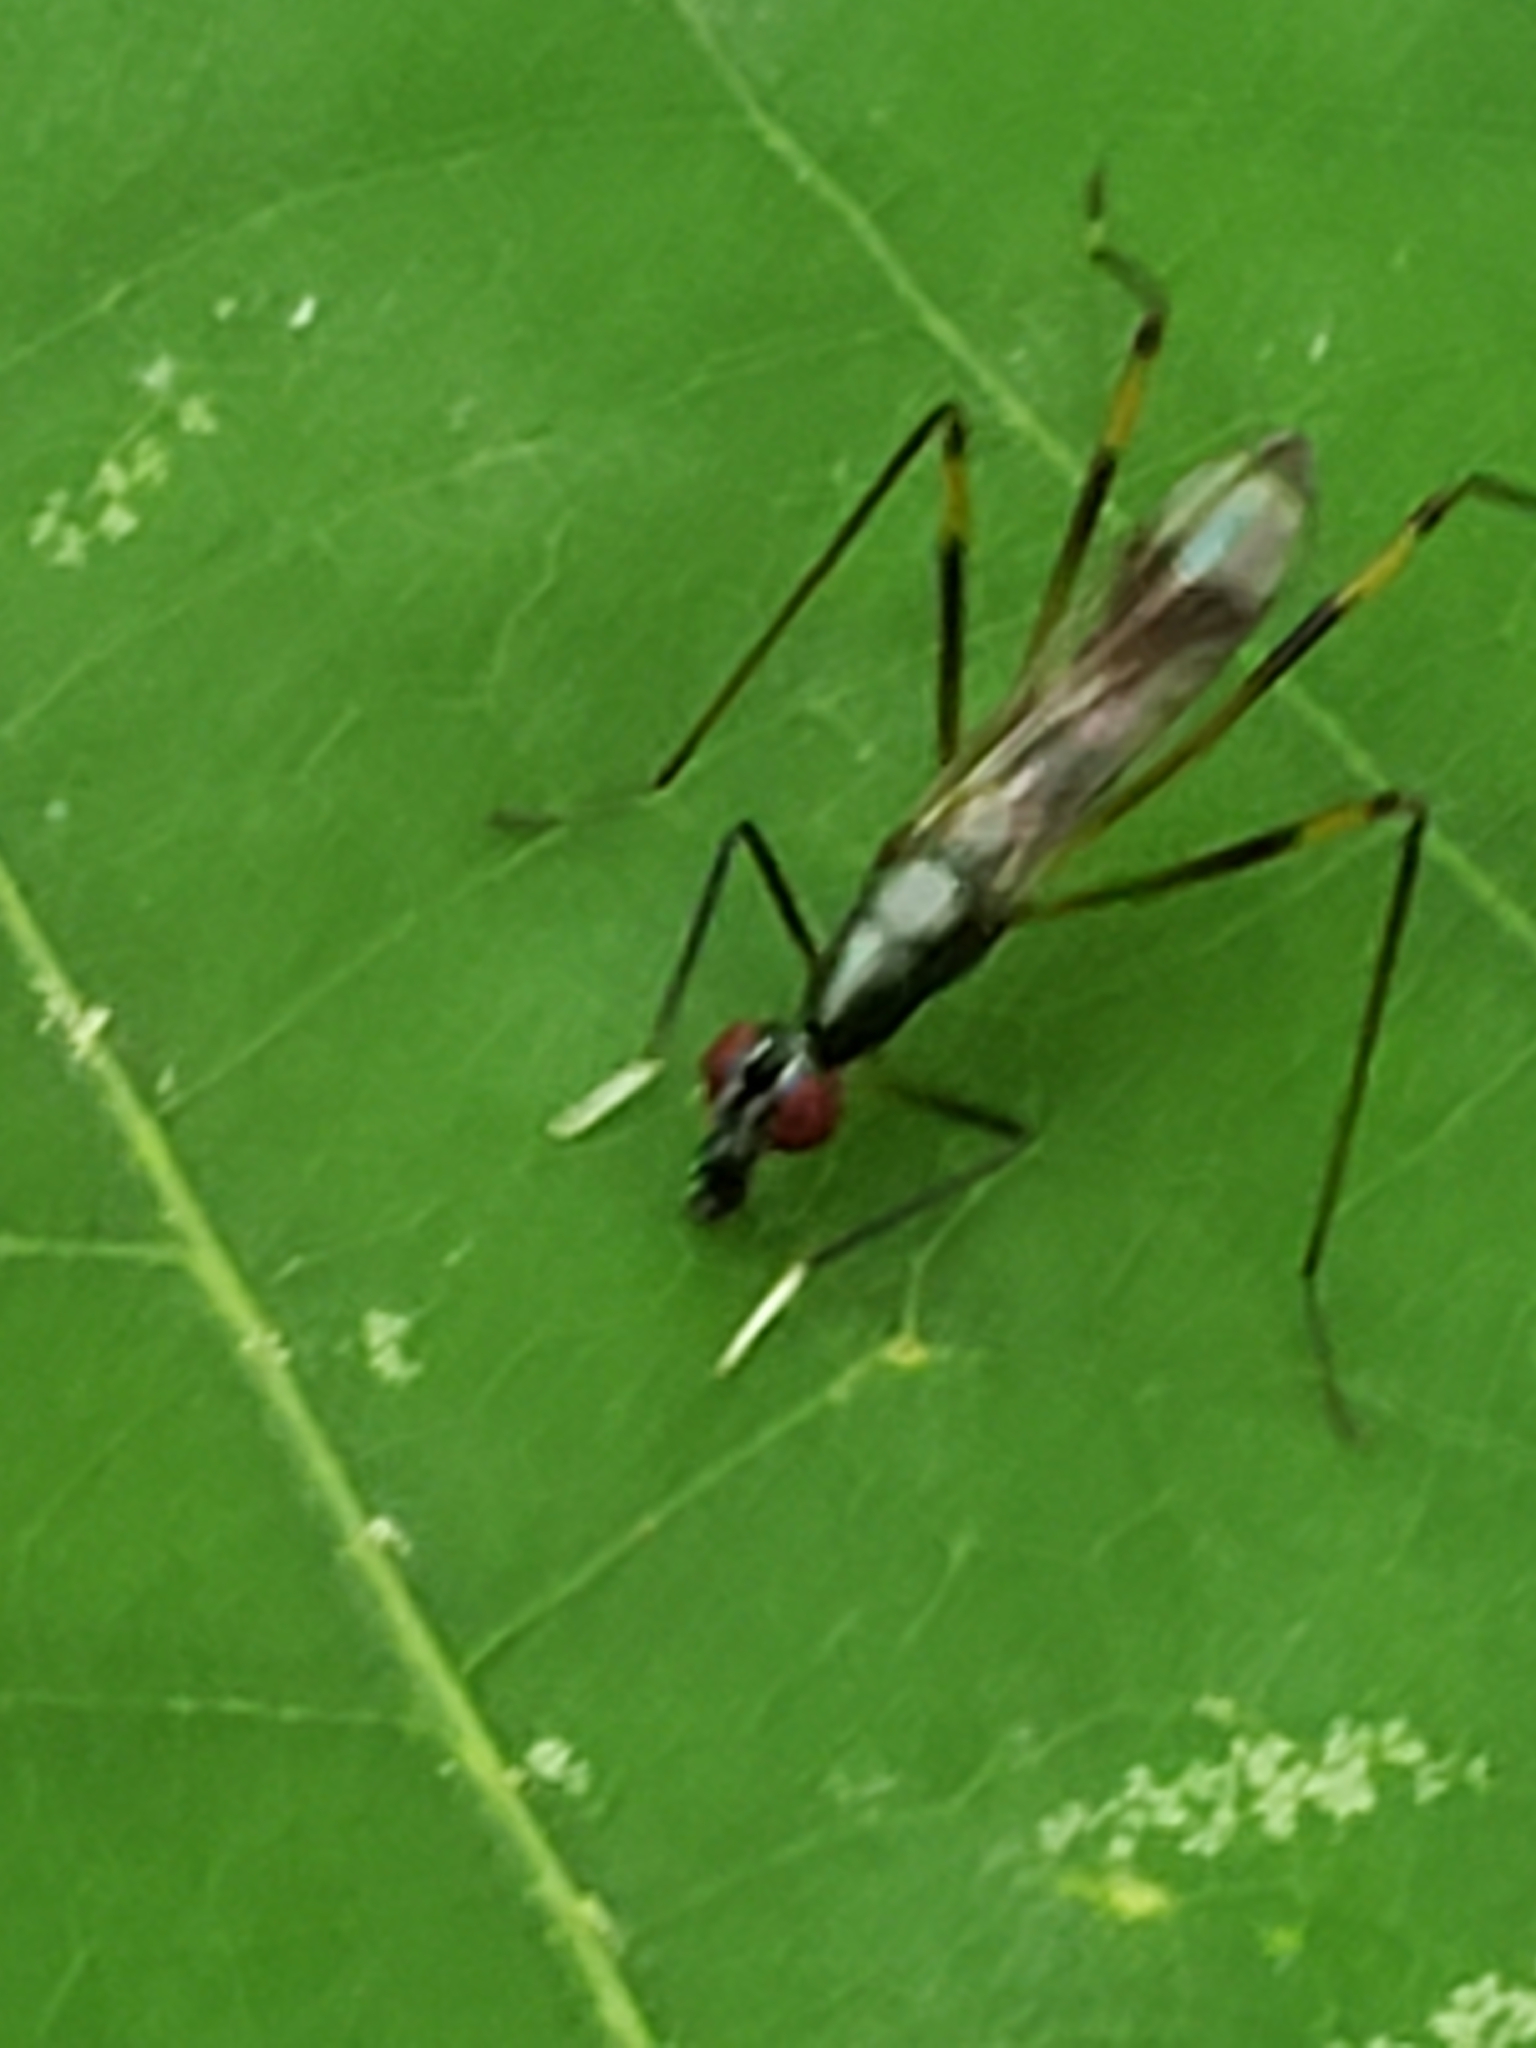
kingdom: Animalia
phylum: Arthropoda
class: Insecta
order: Diptera
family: Micropezidae
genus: Rainieria
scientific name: Rainieria antennaepes
